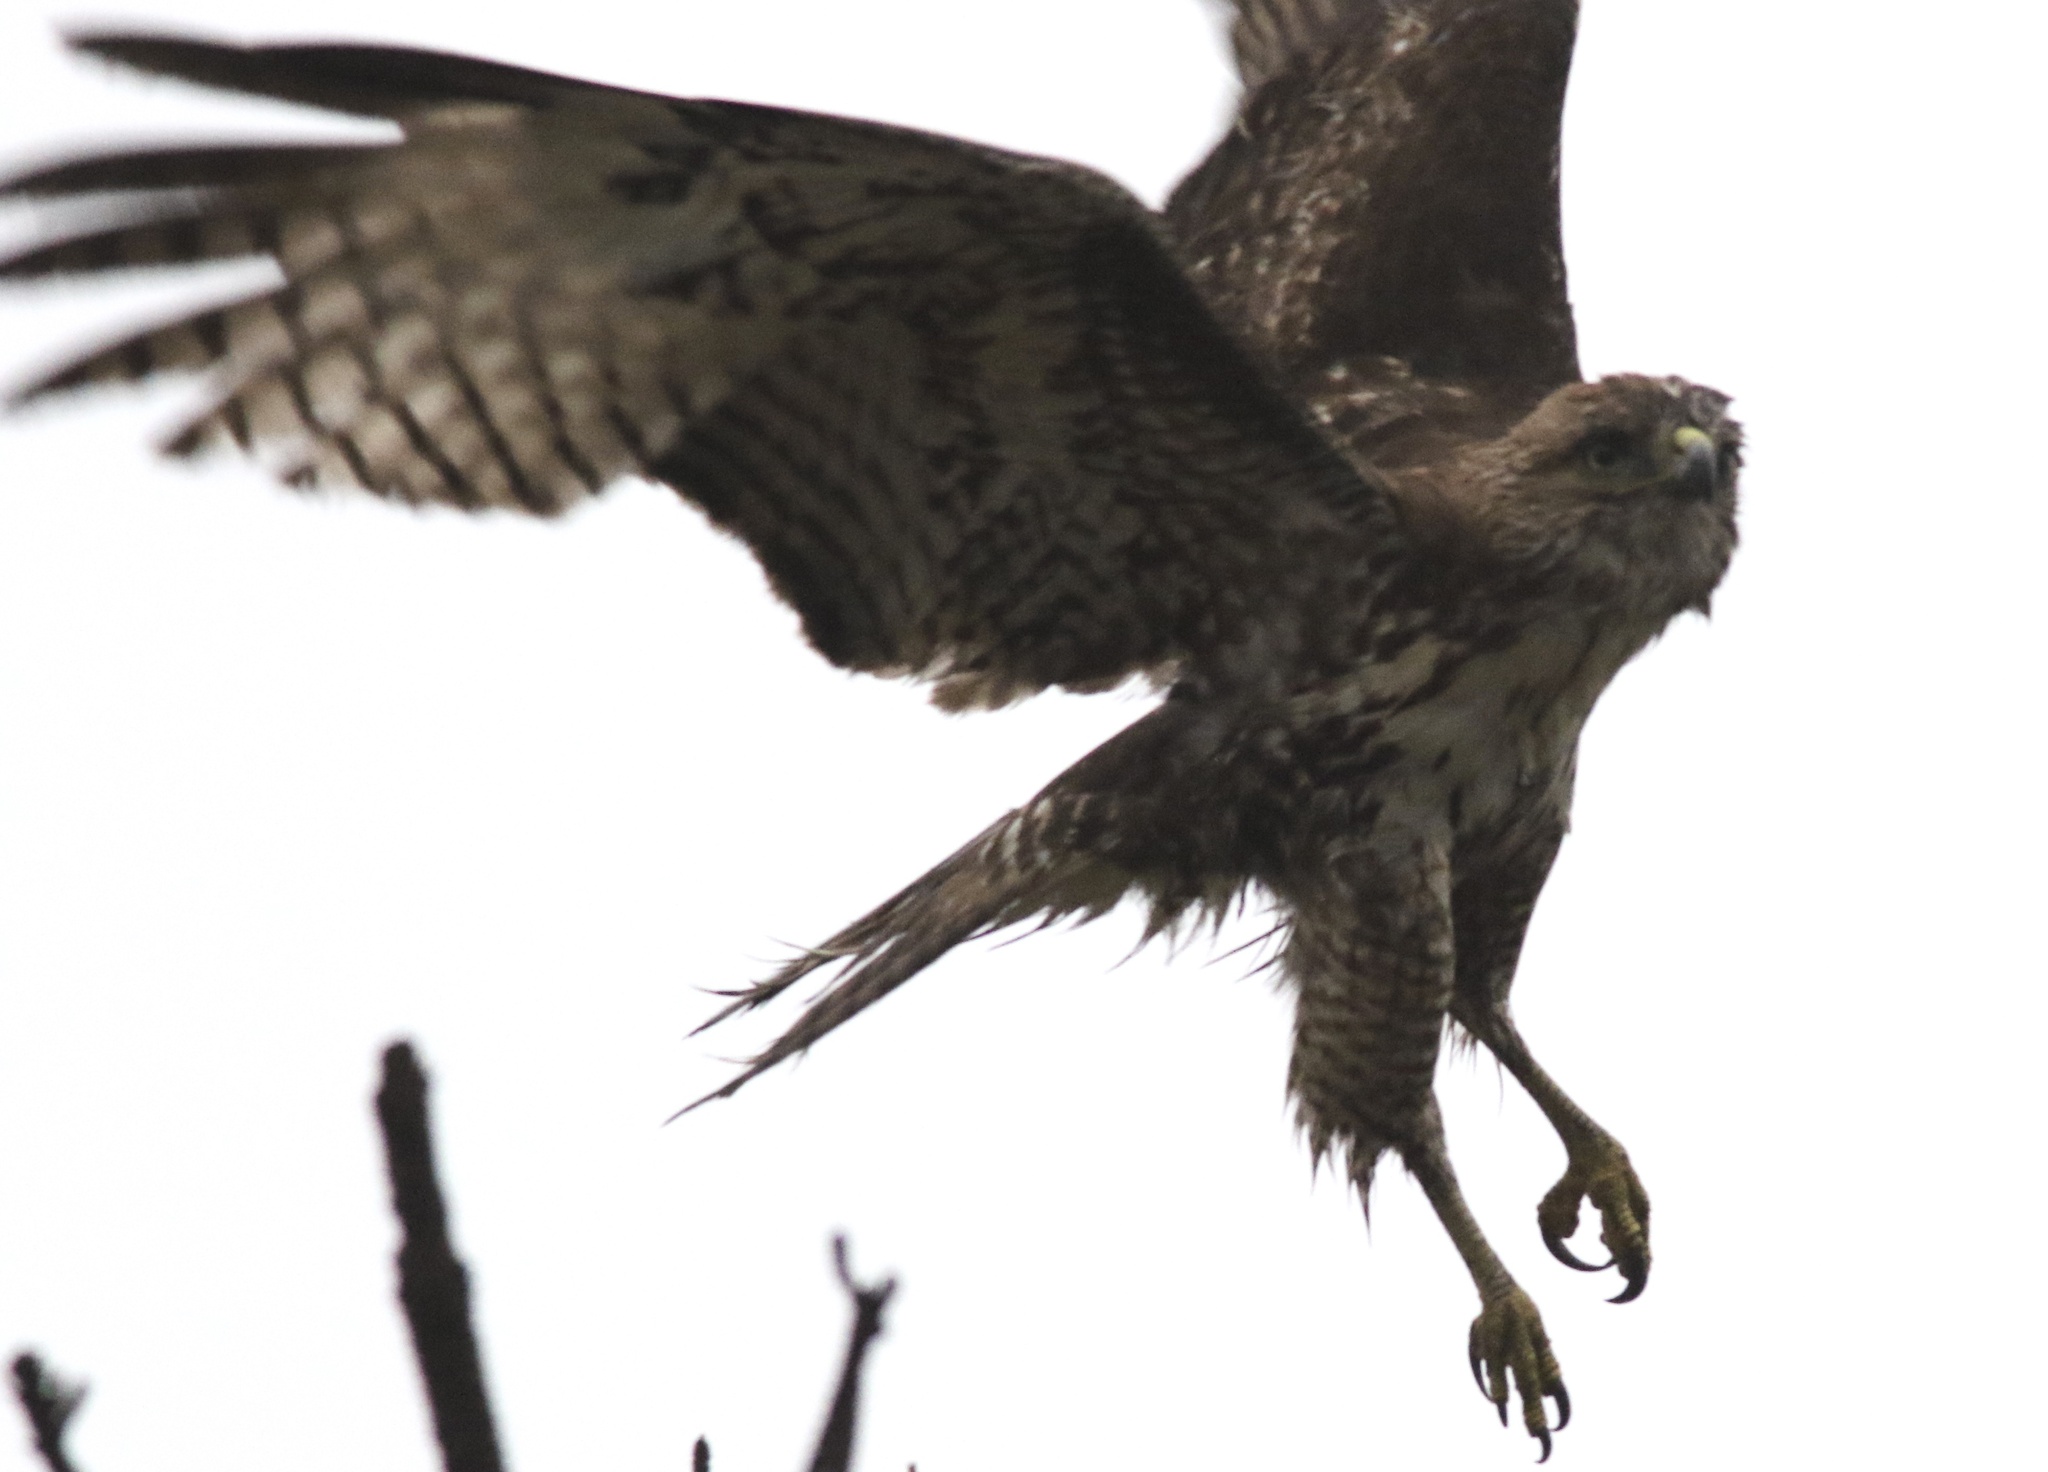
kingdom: Animalia
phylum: Chordata
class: Aves
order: Accipitriformes
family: Accipitridae
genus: Buteo
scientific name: Buteo jamaicensis
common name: Red-tailed hawk
